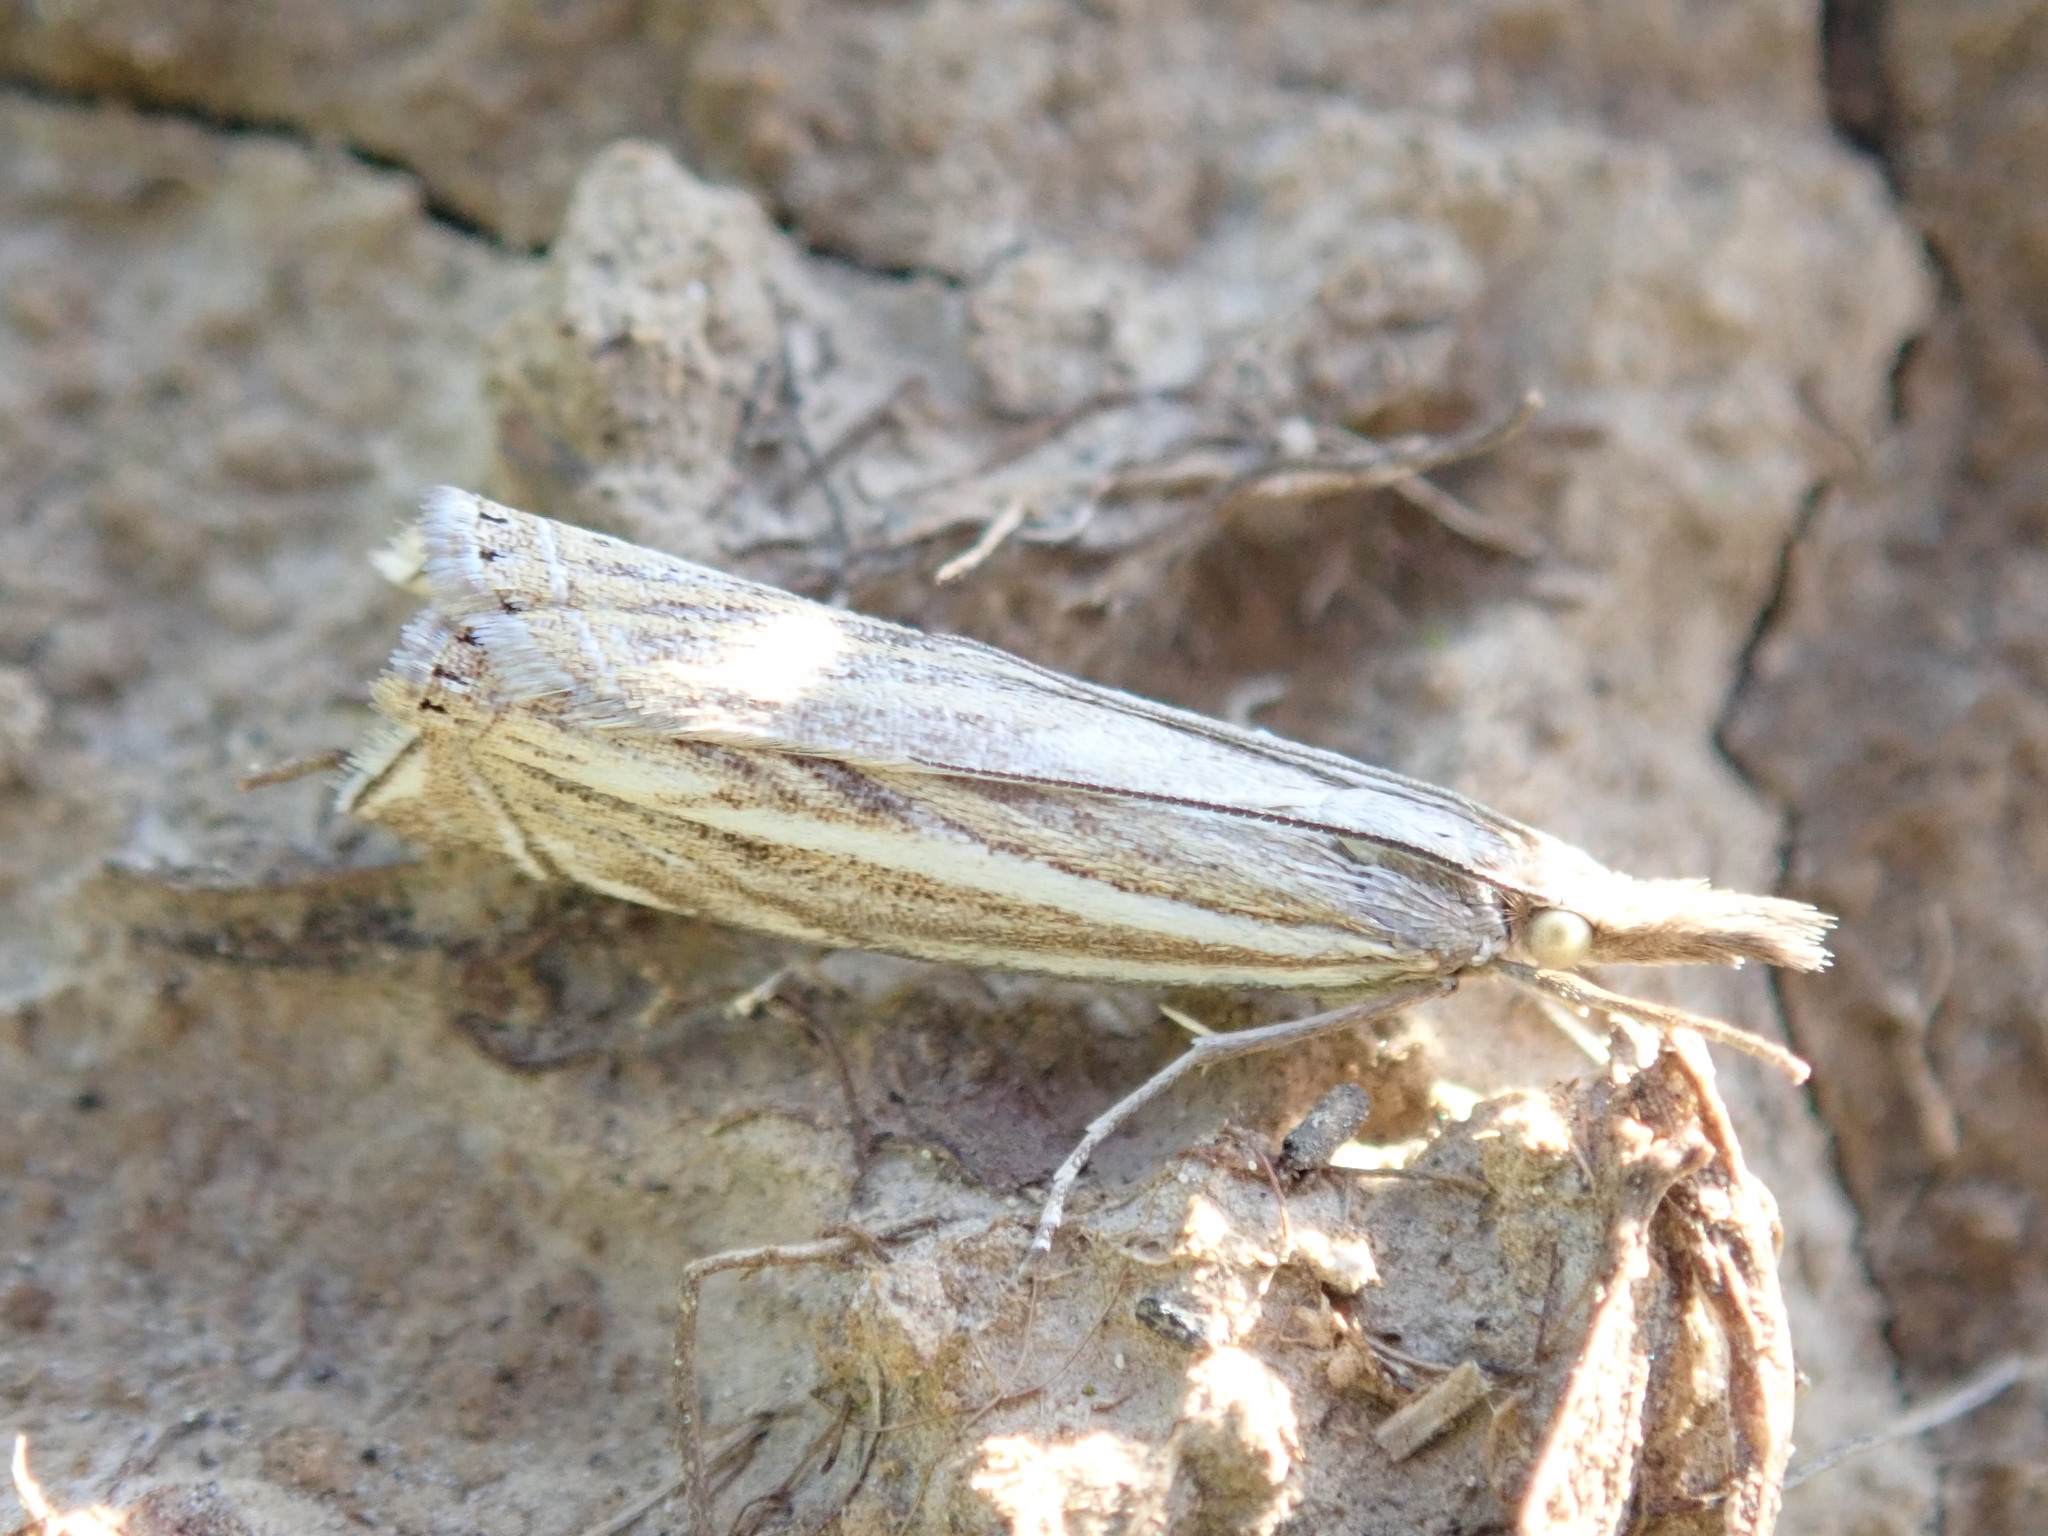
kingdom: Animalia
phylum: Arthropoda
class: Insecta
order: Lepidoptera
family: Crambidae
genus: Crambus
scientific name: Crambus nemorella
